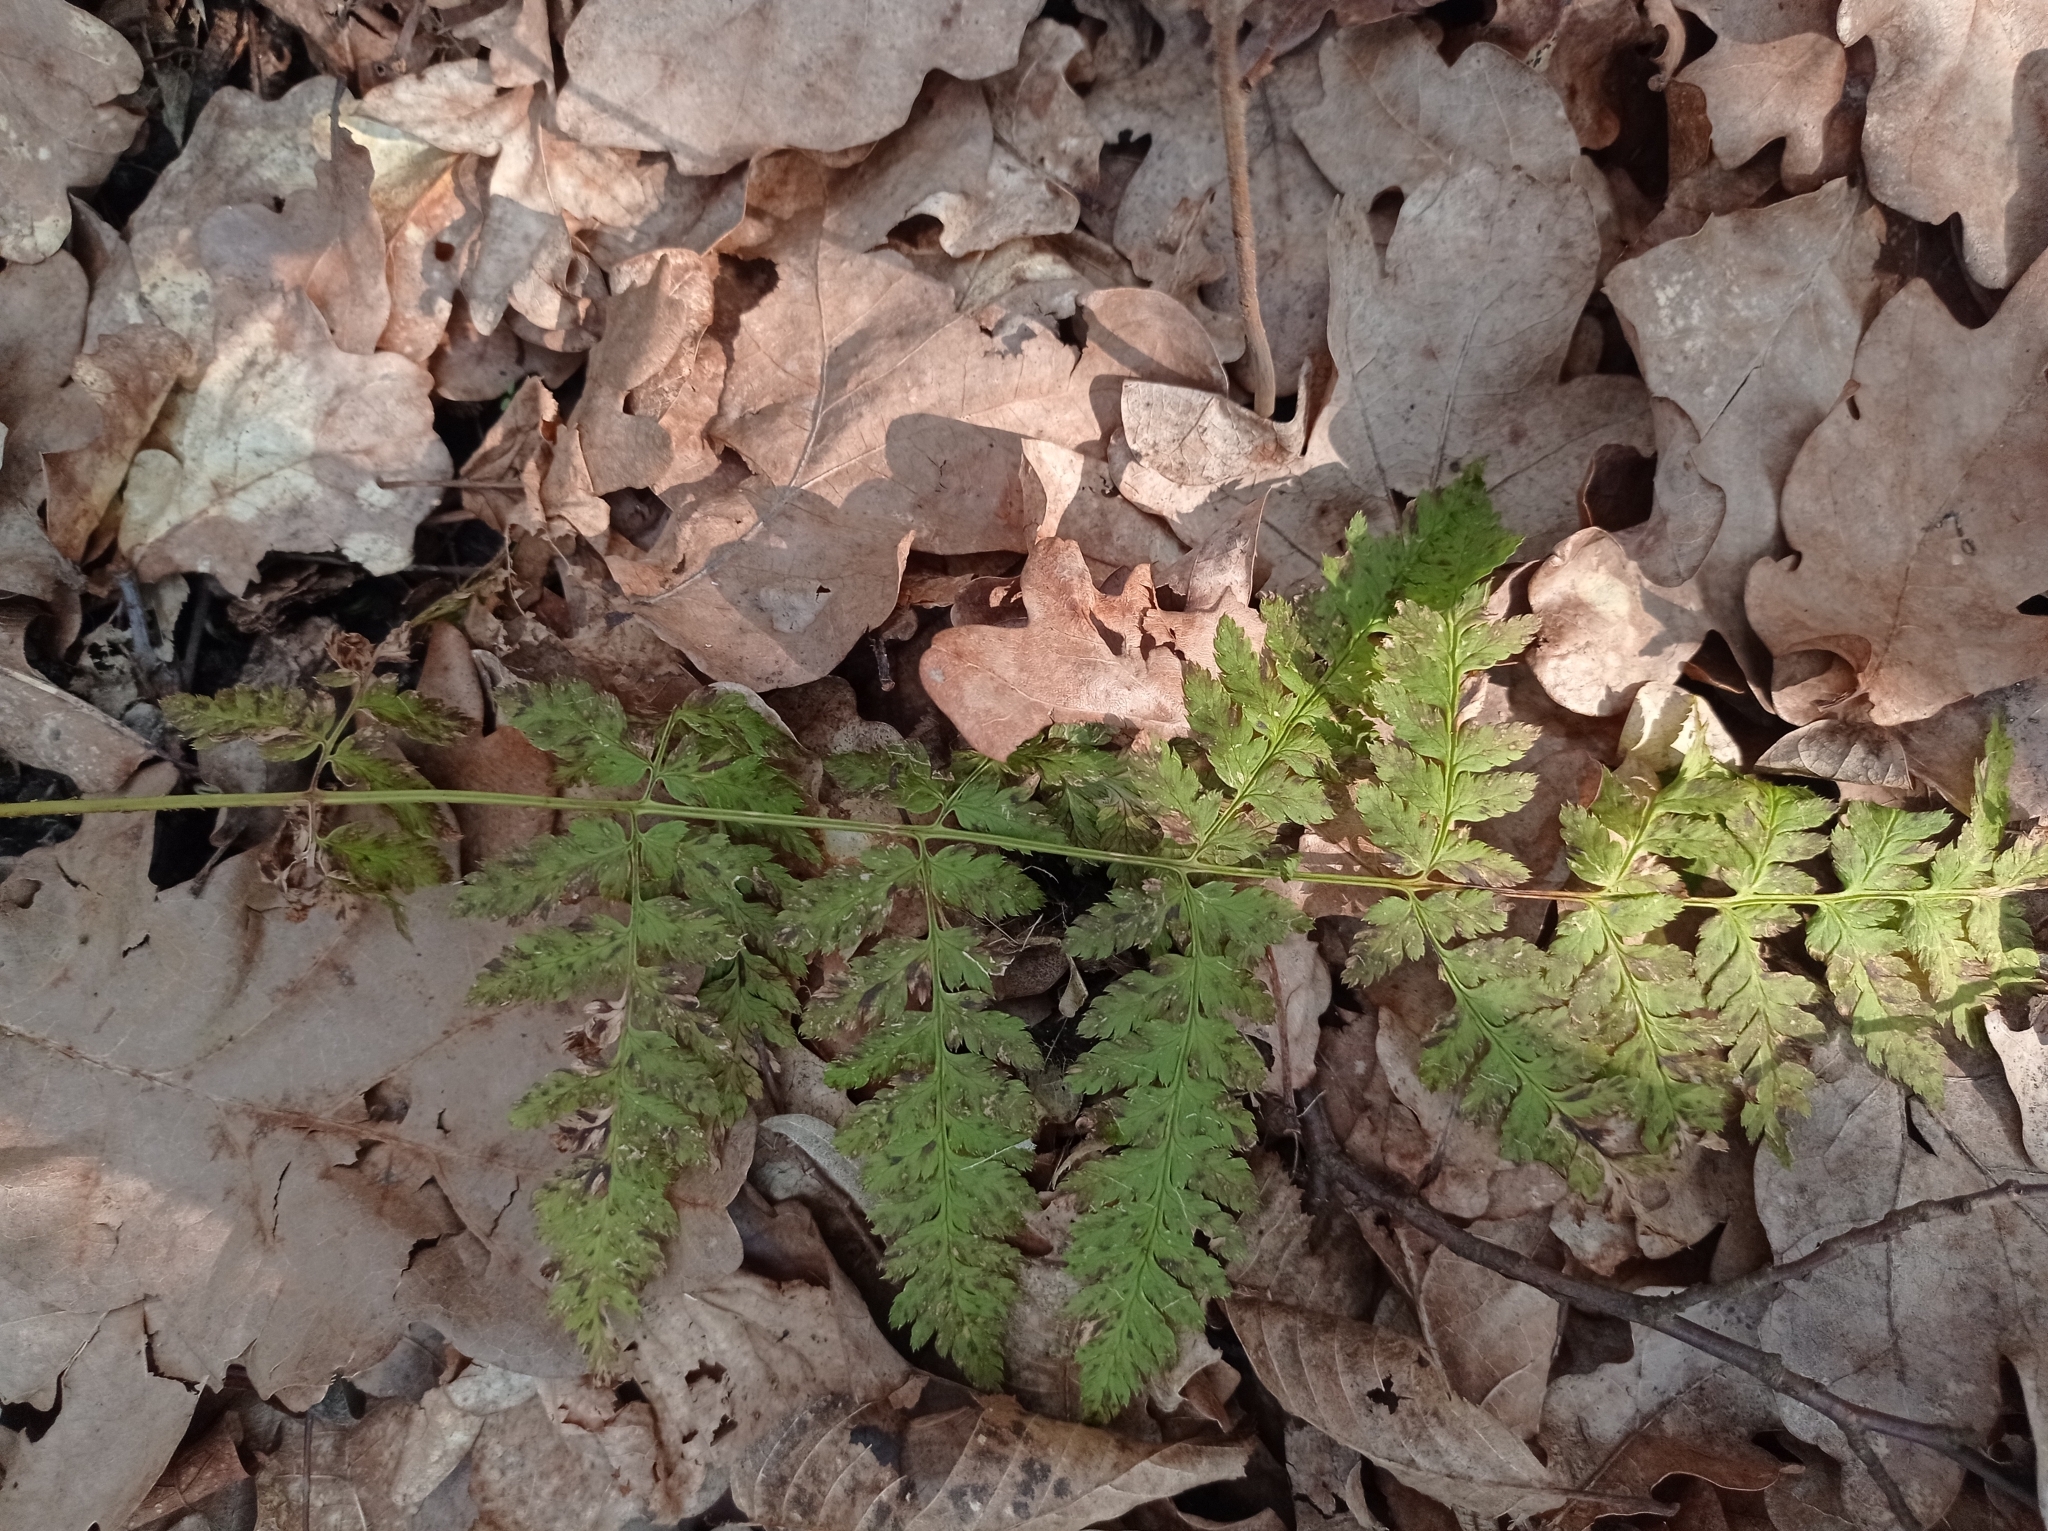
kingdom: Plantae
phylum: Tracheophyta
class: Polypodiopsida
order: Polypodiales
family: Dryopteridaceae
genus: Dryopteris
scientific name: Dryopteris carthusiana
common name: Narrow buckler-fern
